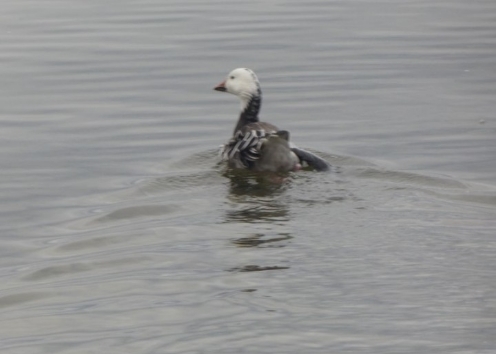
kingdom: Animalia
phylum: Chordata
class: Aves
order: Anseriformes
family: Anatidae
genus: Anser
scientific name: Anser caerulescens
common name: Snow goose
